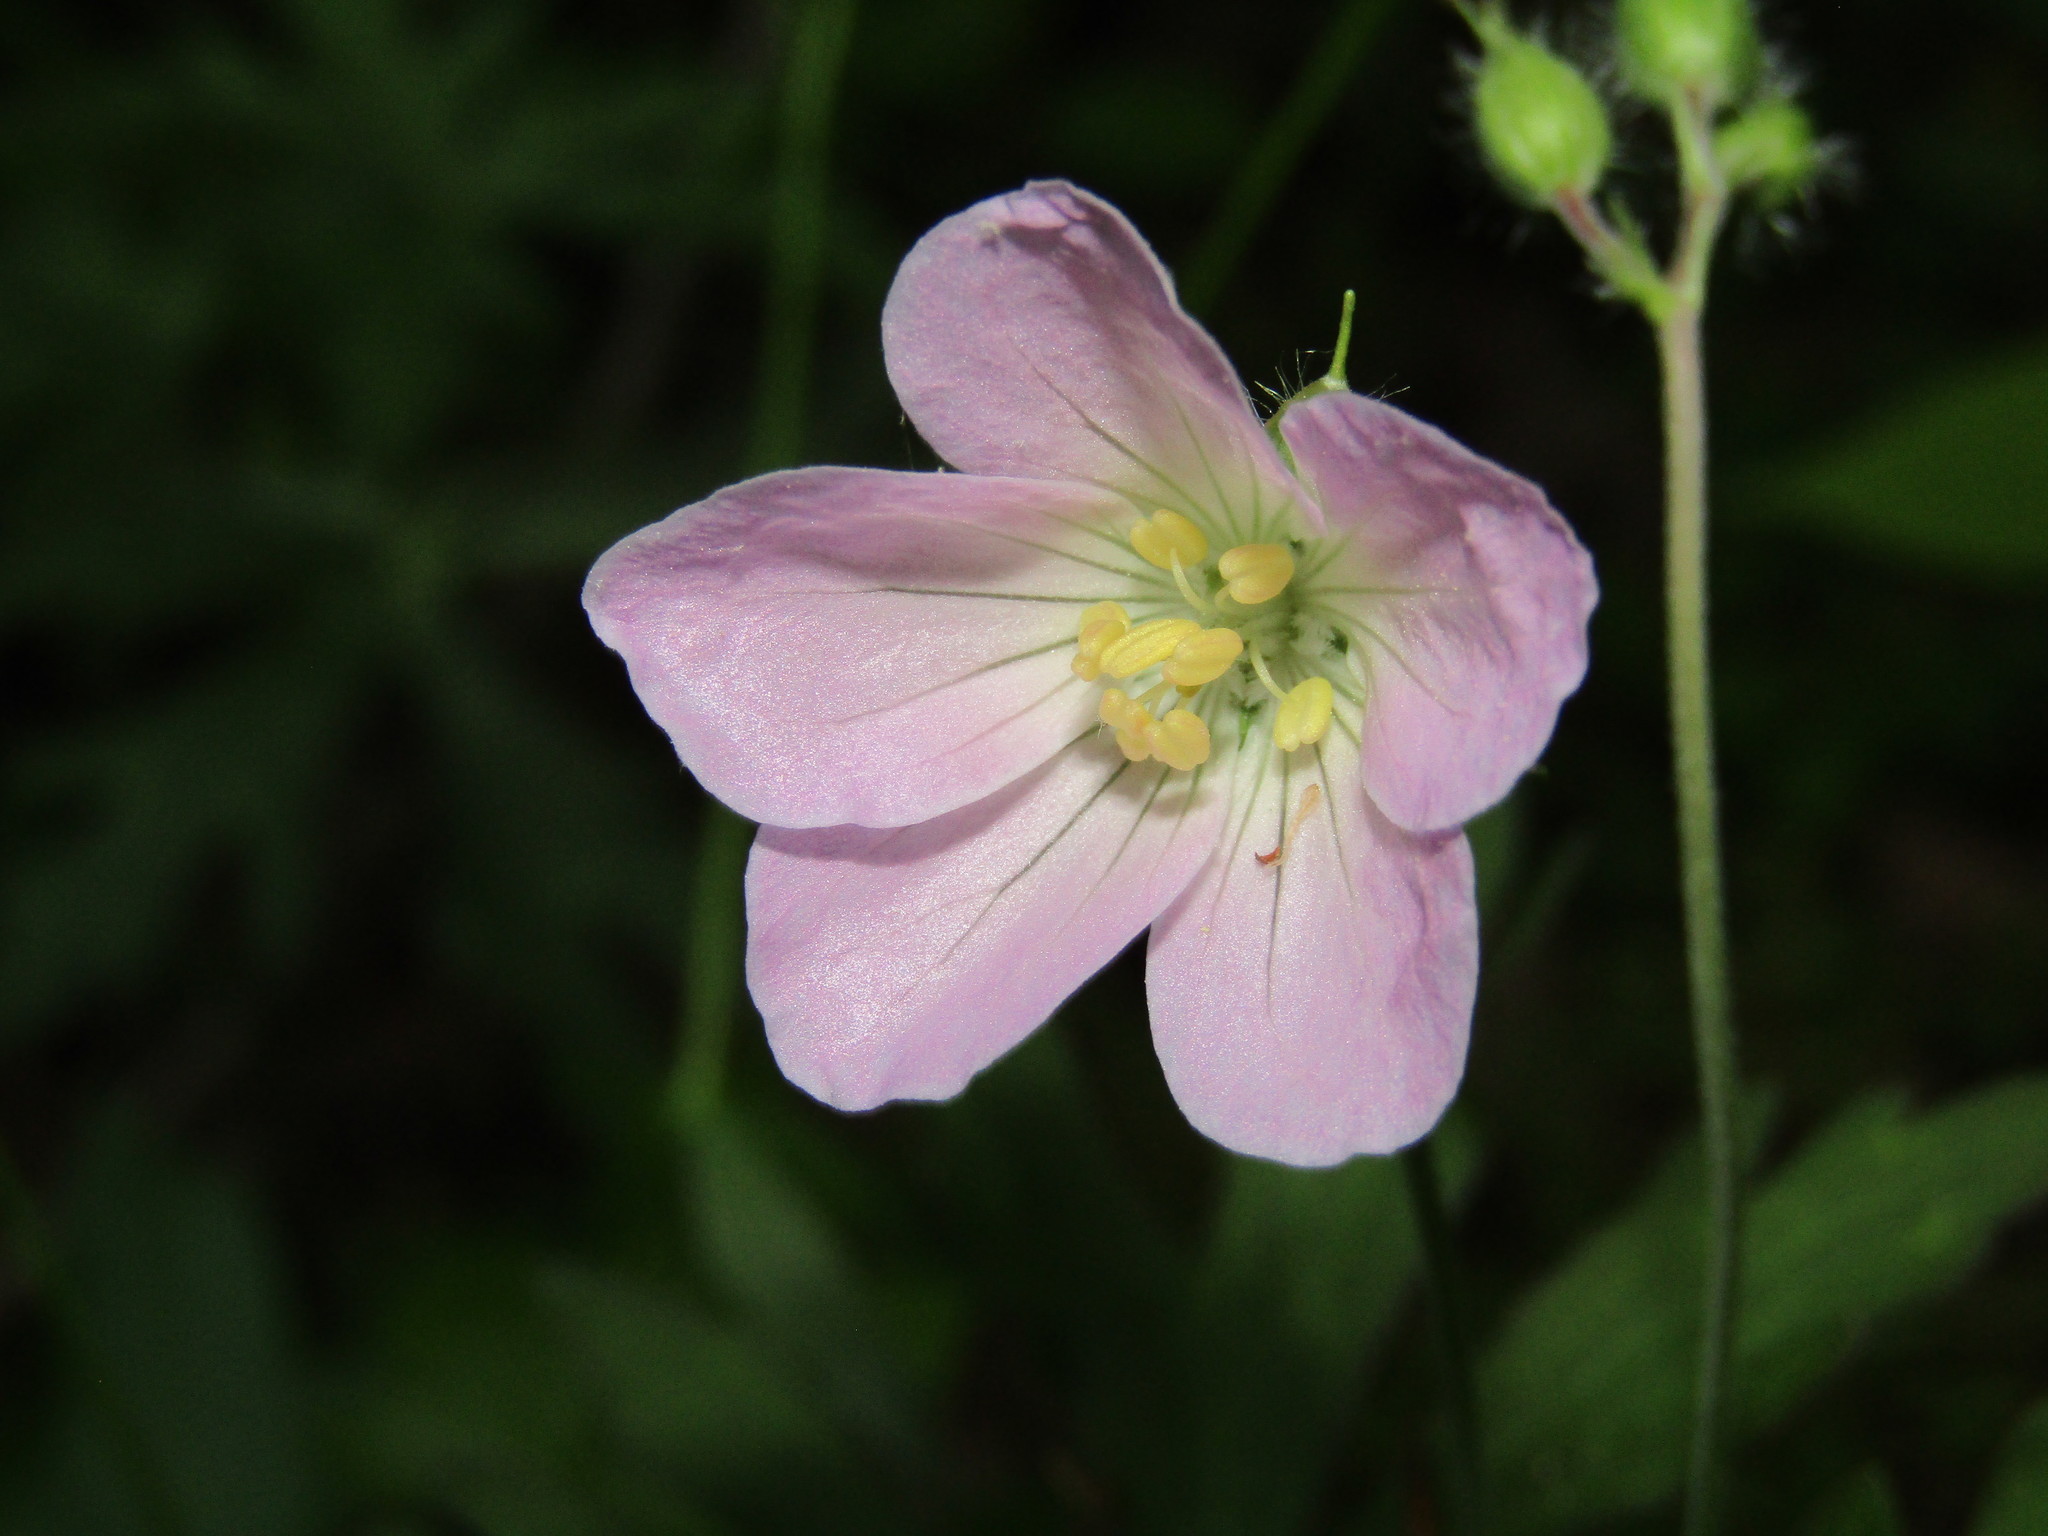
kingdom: Plantae
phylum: Tracheophyta
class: Magnoliopsida
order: Geraniales
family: Geraniaceae
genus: Geranium
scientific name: Geranium maculatum
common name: Spotted geranium
